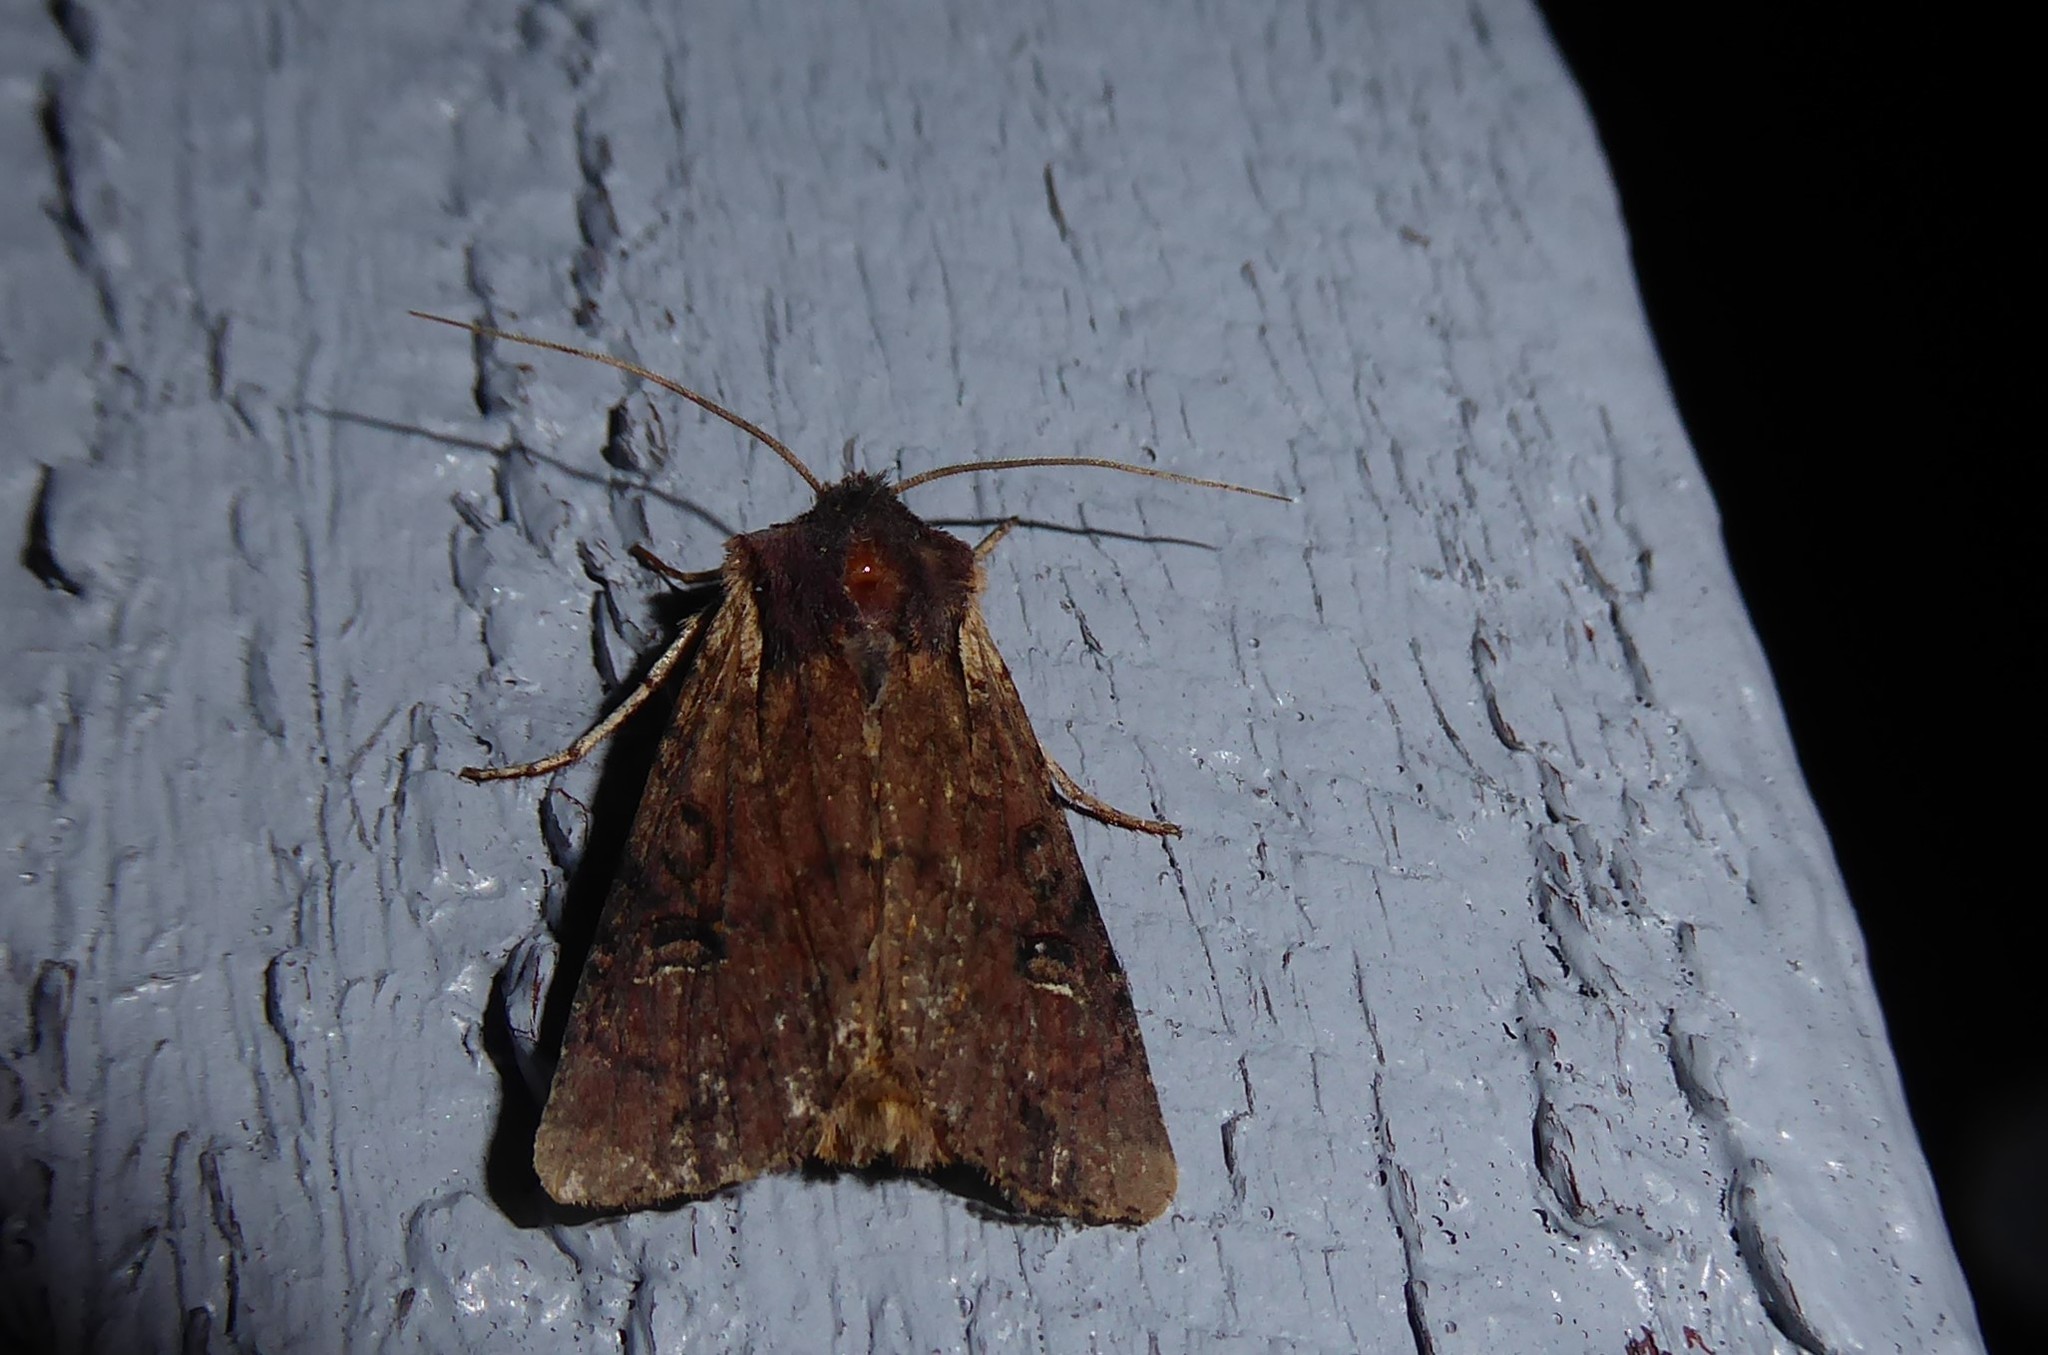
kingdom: Animalia
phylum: Arthropoda
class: Insecta
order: Lepidoptera
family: Noctuidae
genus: Ichneutica
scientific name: Ichneutica omoplaca
